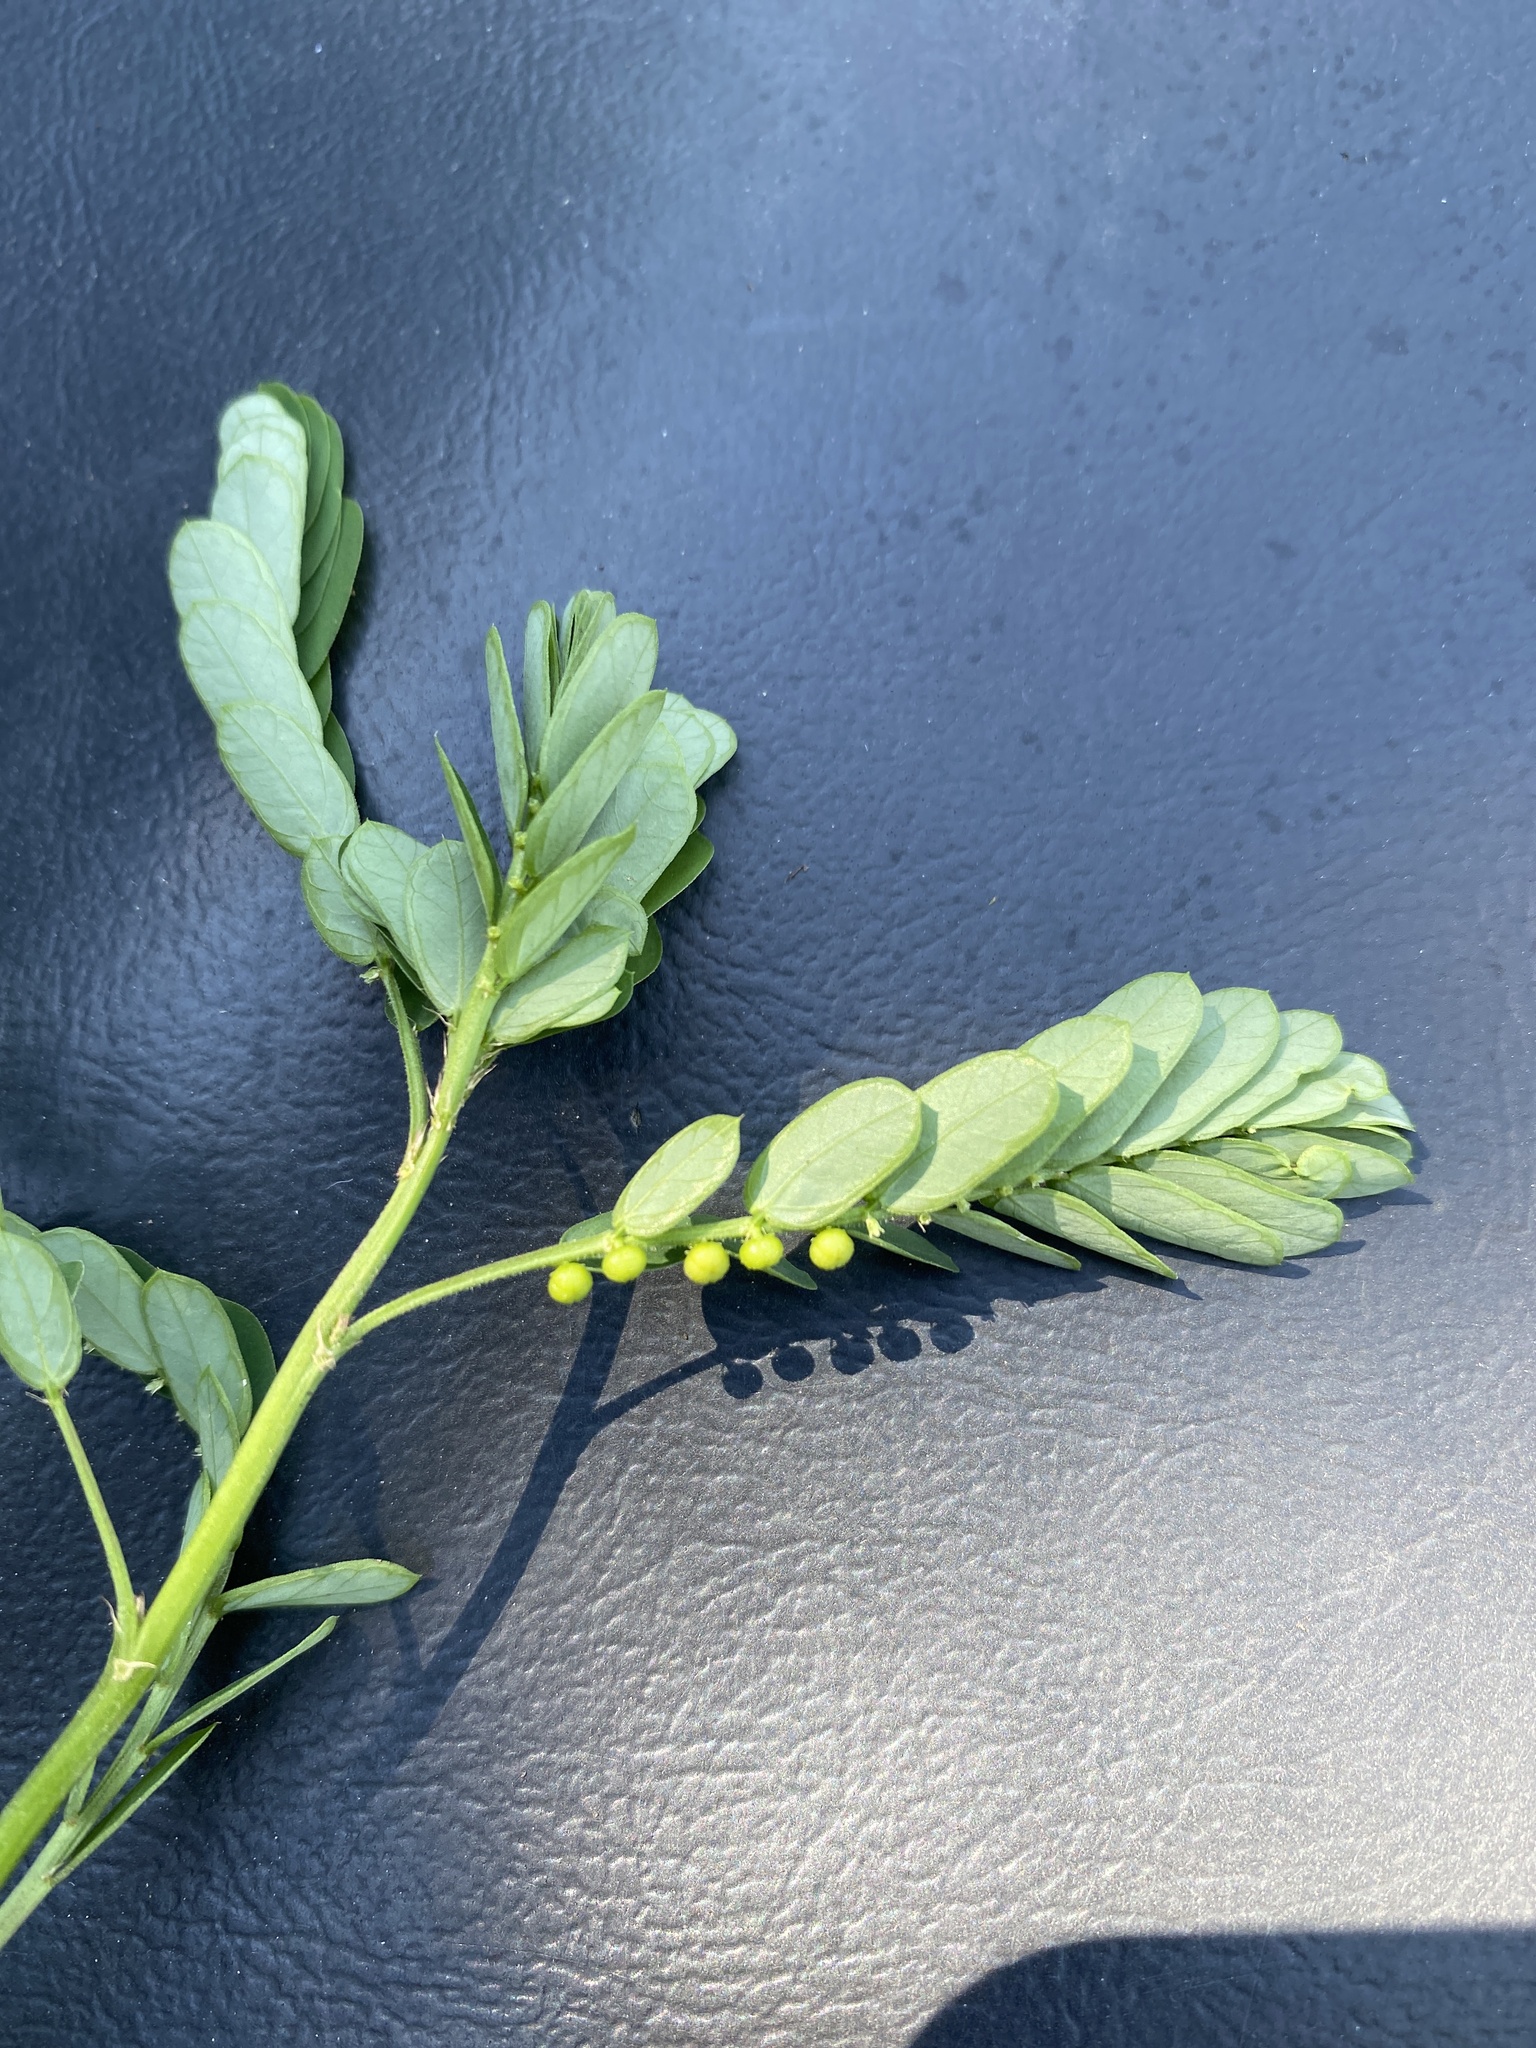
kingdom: Plantae
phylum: Tracheophyta
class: Magnoliopsida
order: Malpighiales
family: Phyllanthaceae
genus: Phyllanthus
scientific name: Phyllanthus urinaria
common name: Chamber bitter
